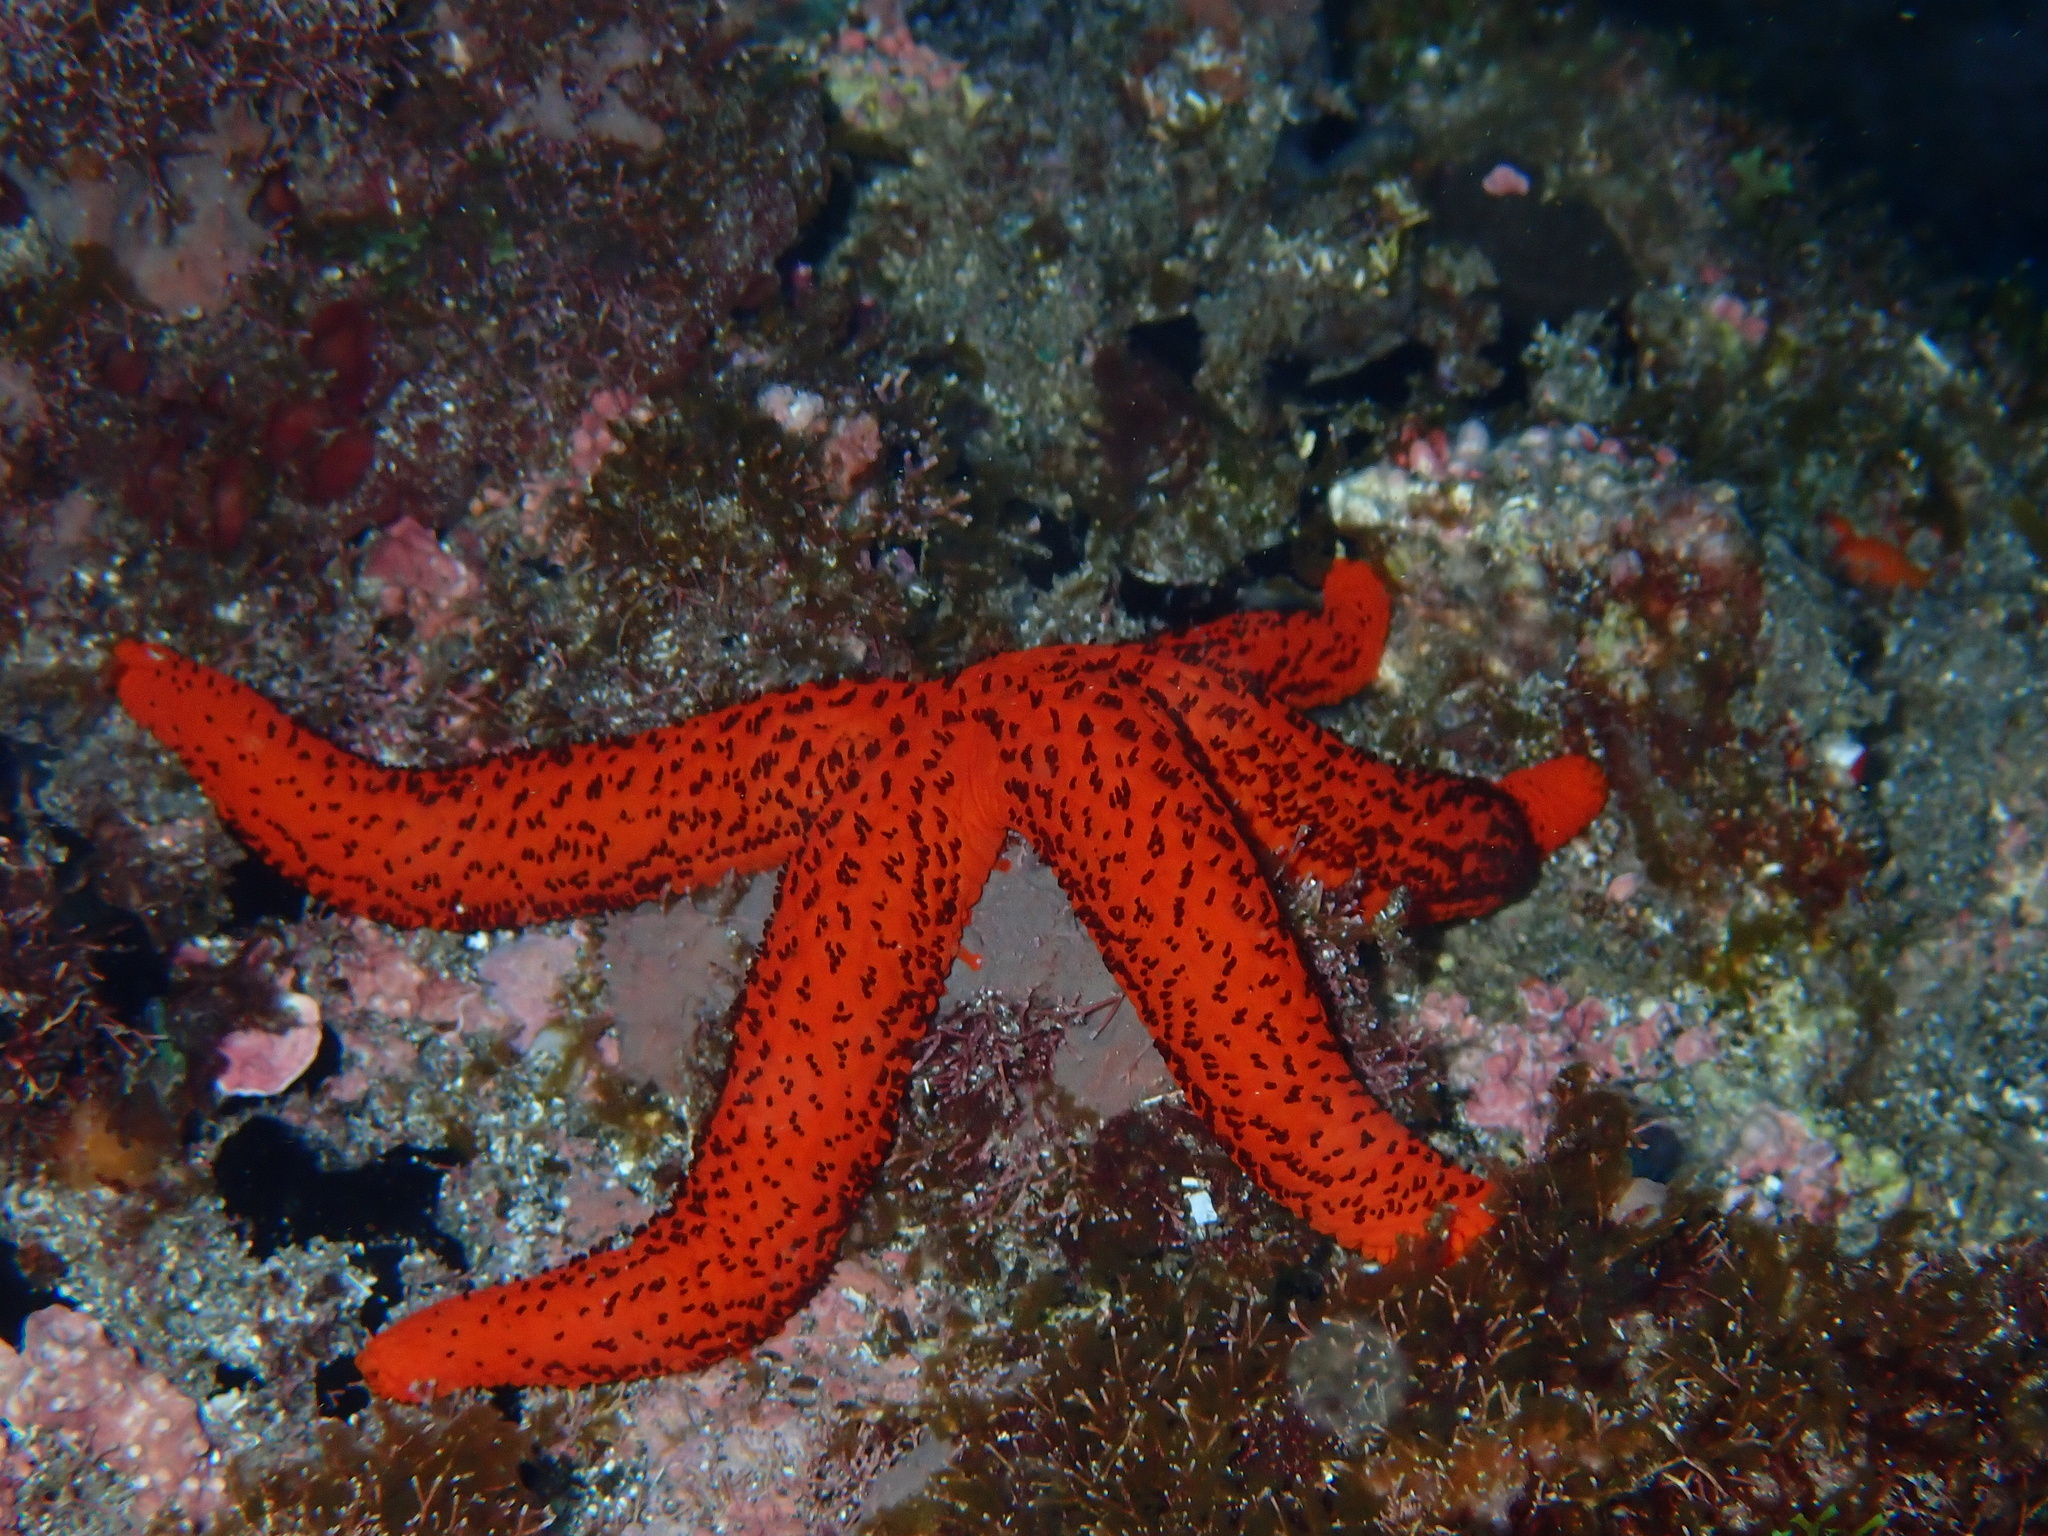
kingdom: Animalia
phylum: Echinodermata
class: Asteroidea
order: Spinulosida
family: Echinasteridae
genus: Echinaster
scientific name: Echinaster sepositus
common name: Red starfish
